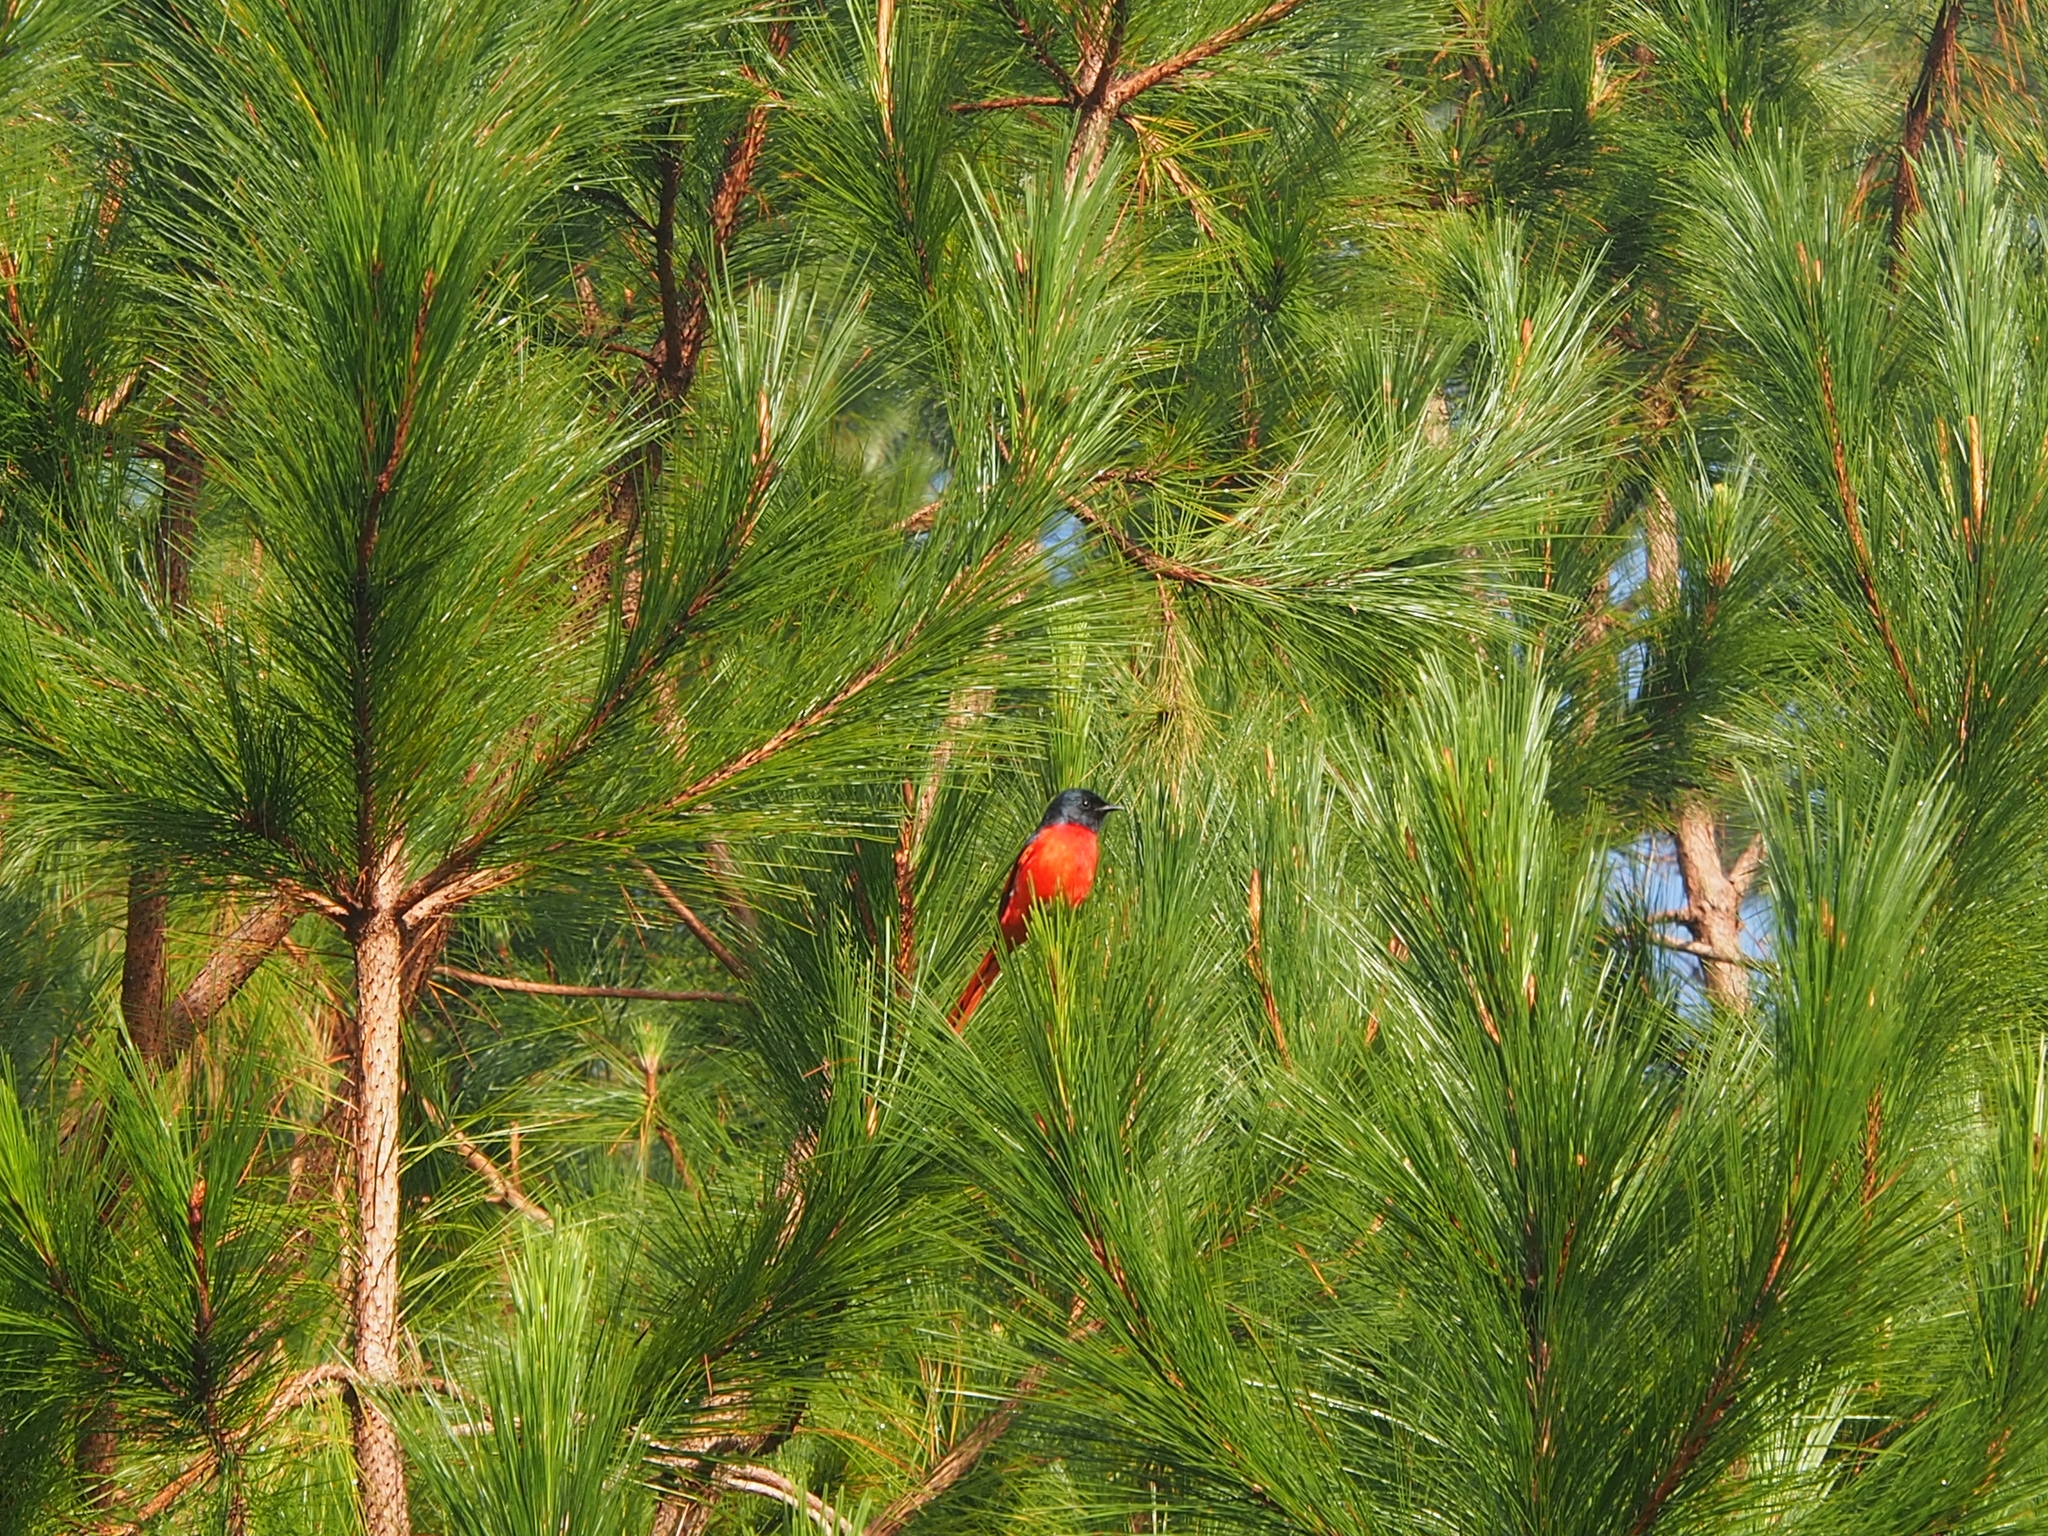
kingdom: Animalia
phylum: Chordata
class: Aves
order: Passeriformes
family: Campephagidae
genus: Pericrocotus
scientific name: Pericrocotus speciosus
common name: Scarlet minivet
